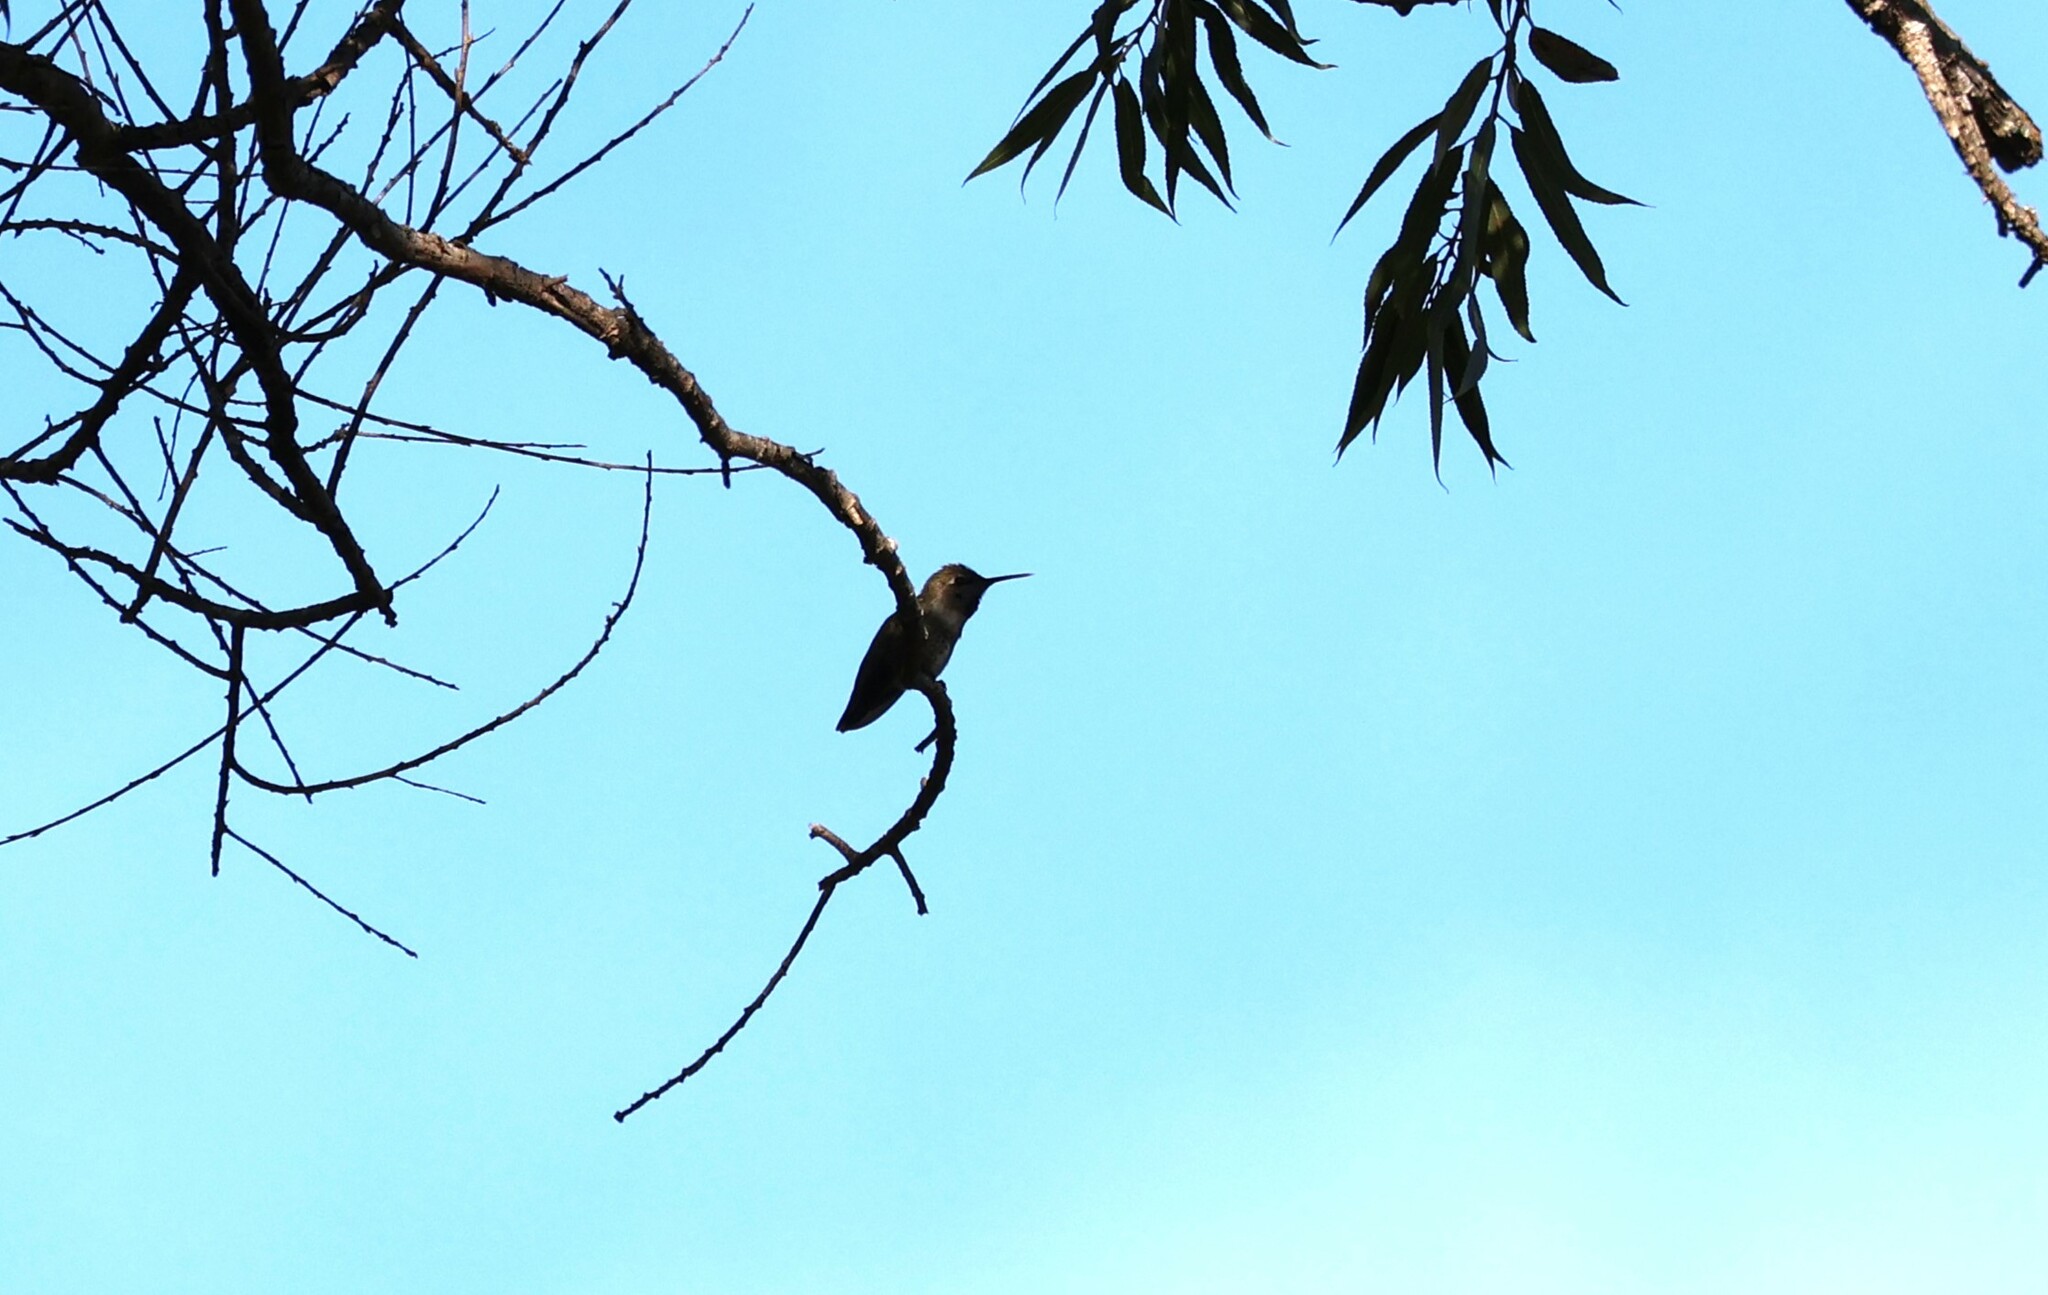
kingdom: Animalia
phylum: Chordata
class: Aves
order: Apodiformes
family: Trochilidae
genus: Calypte
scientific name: Calypte anna
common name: Anna's hummingbird
